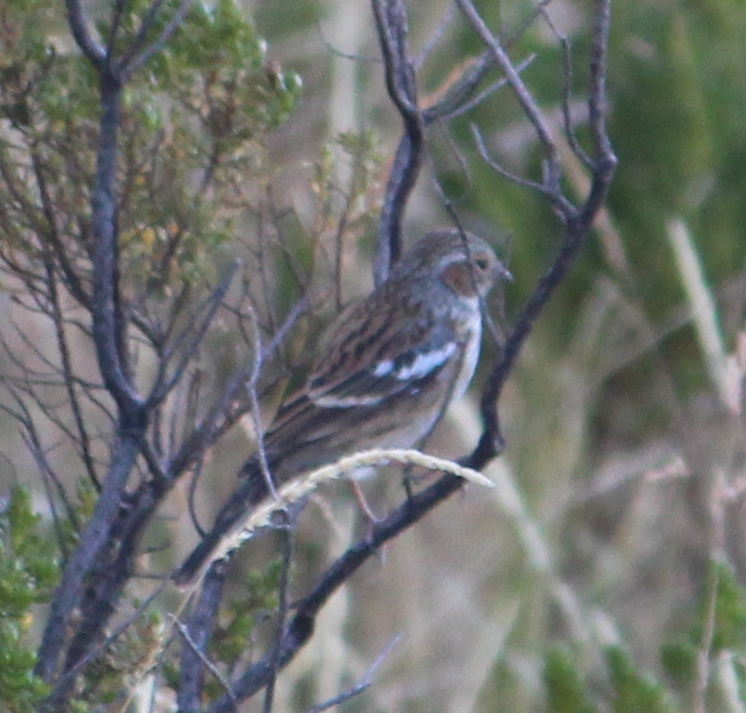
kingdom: Animalia
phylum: Chordata
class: Aves
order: Passeriformes
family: Thraupidae
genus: Rhopospina
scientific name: Rhopospina fruticeti
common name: Mourning sierra finch
